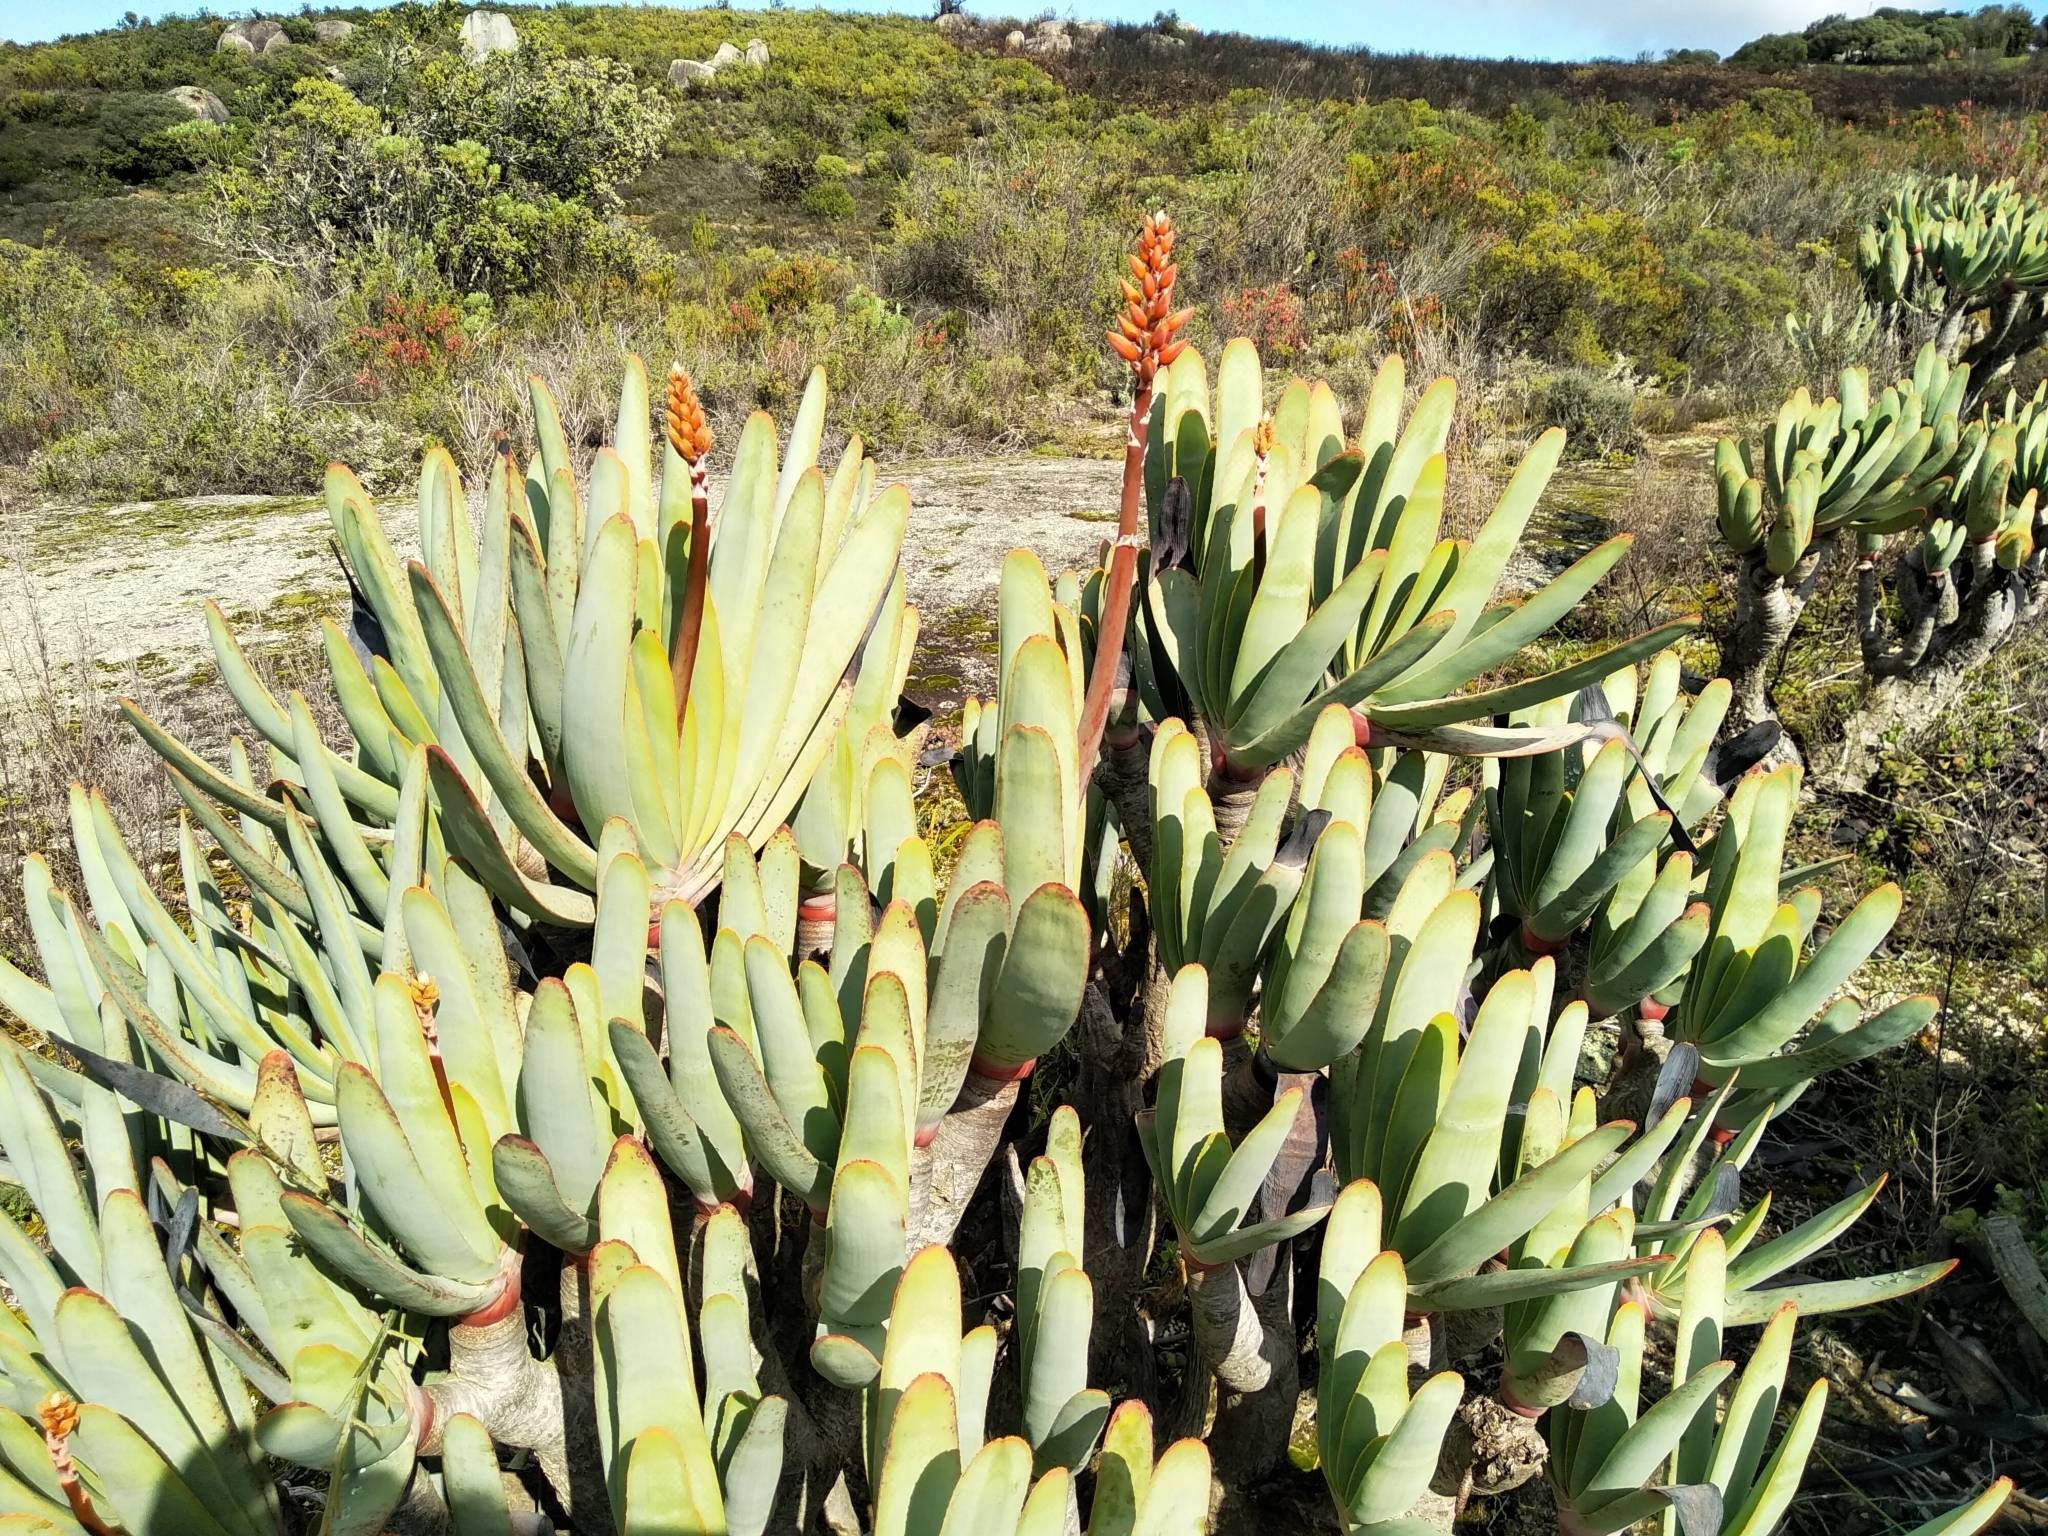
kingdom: Plantae
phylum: Tracheophyta
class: Liliopsida
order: Asparagales
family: Asphodelaceae
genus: Kumara
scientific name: Kumara plicatilis
